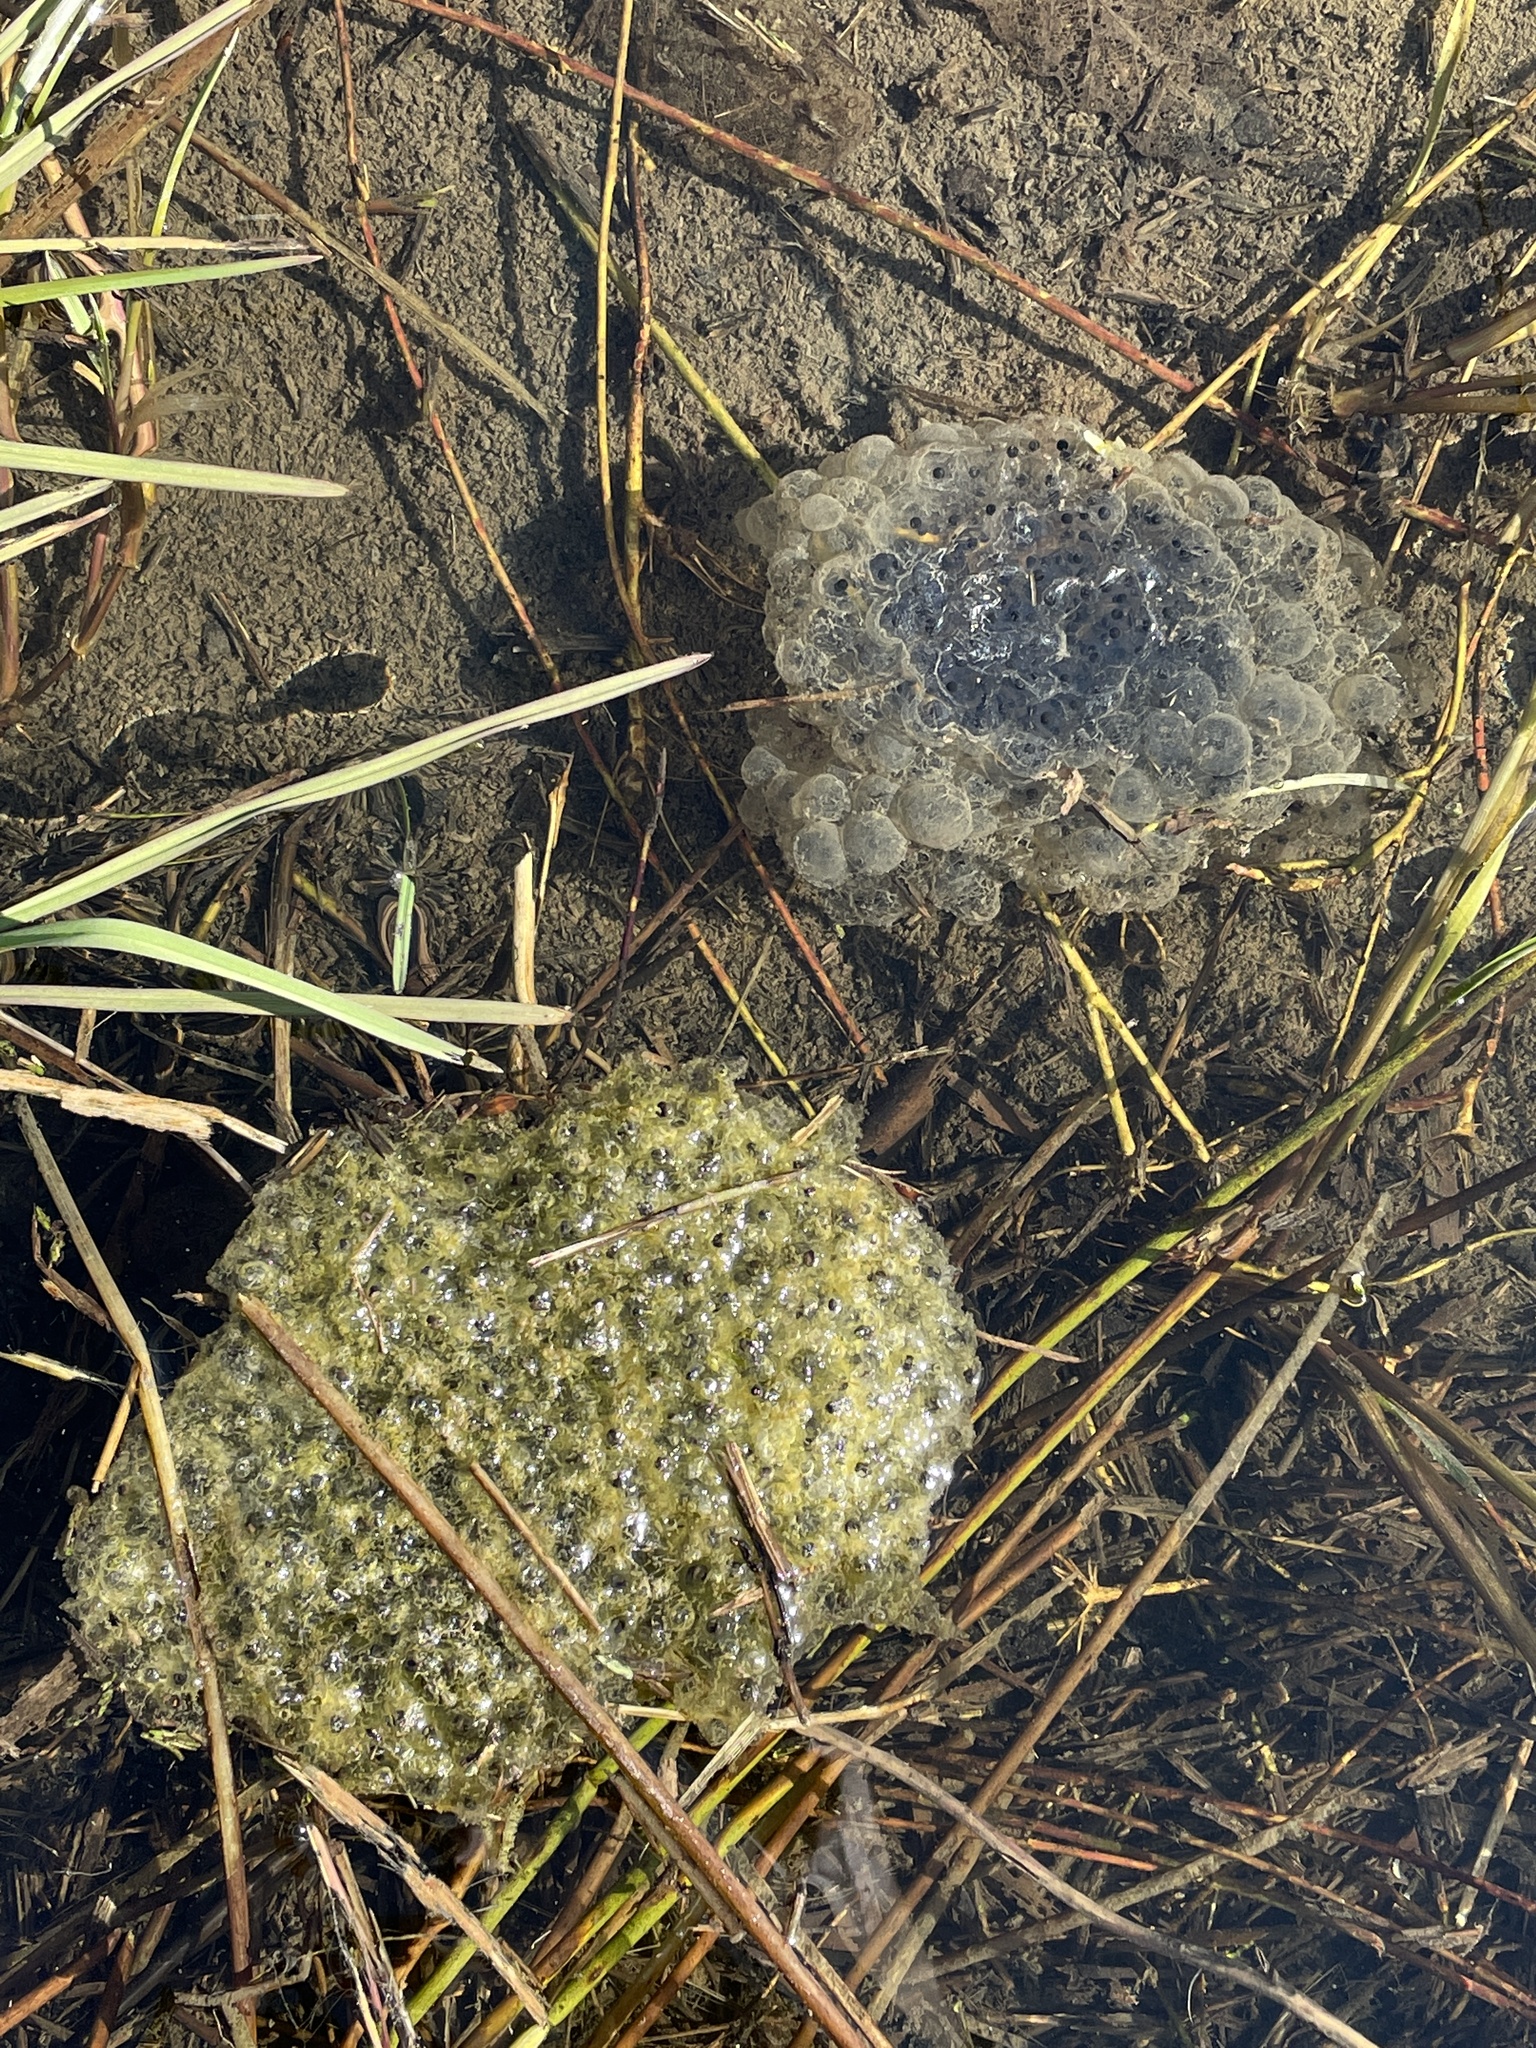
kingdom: Animalia
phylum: Chordata
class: Amphibia
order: Anura
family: Ranidae
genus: Rana
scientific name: Rana dalmatina
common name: Agile frog
